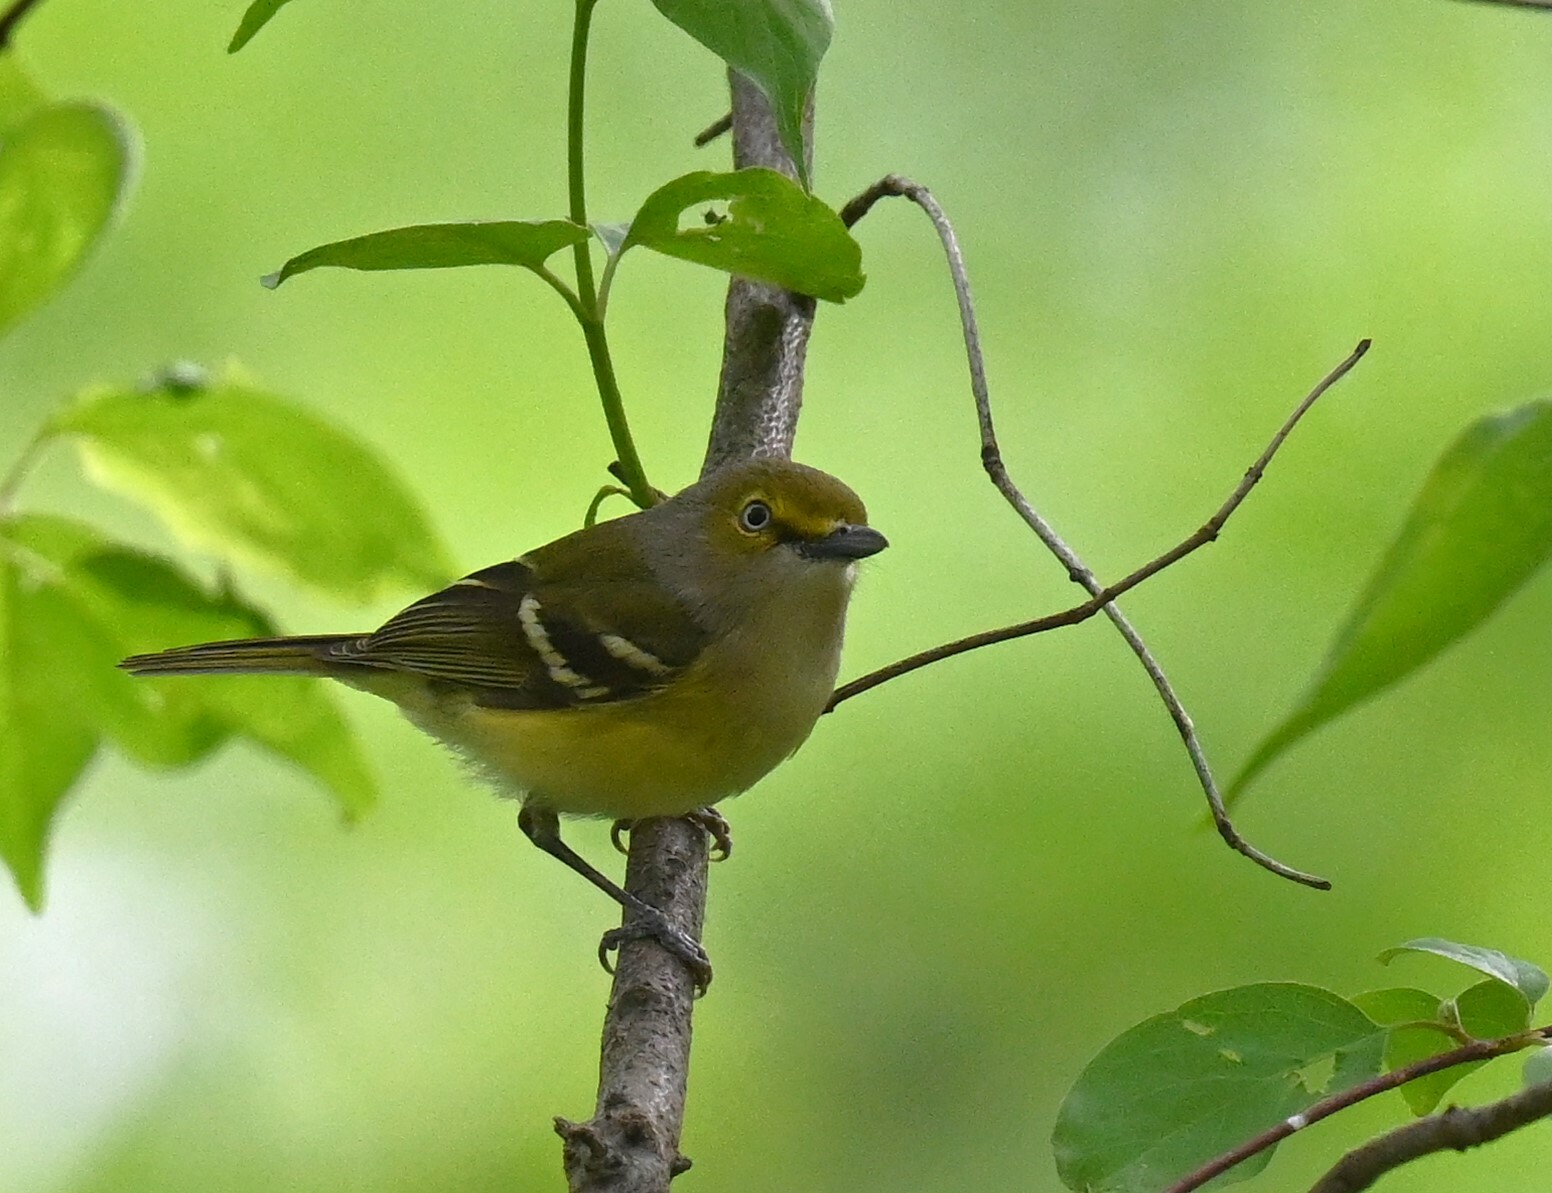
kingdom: Animalia
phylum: Chordata
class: Aves
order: Passeriformes
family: Vireonidae
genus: Vireo
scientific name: Vireo griseus
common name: White-eyed vireo
